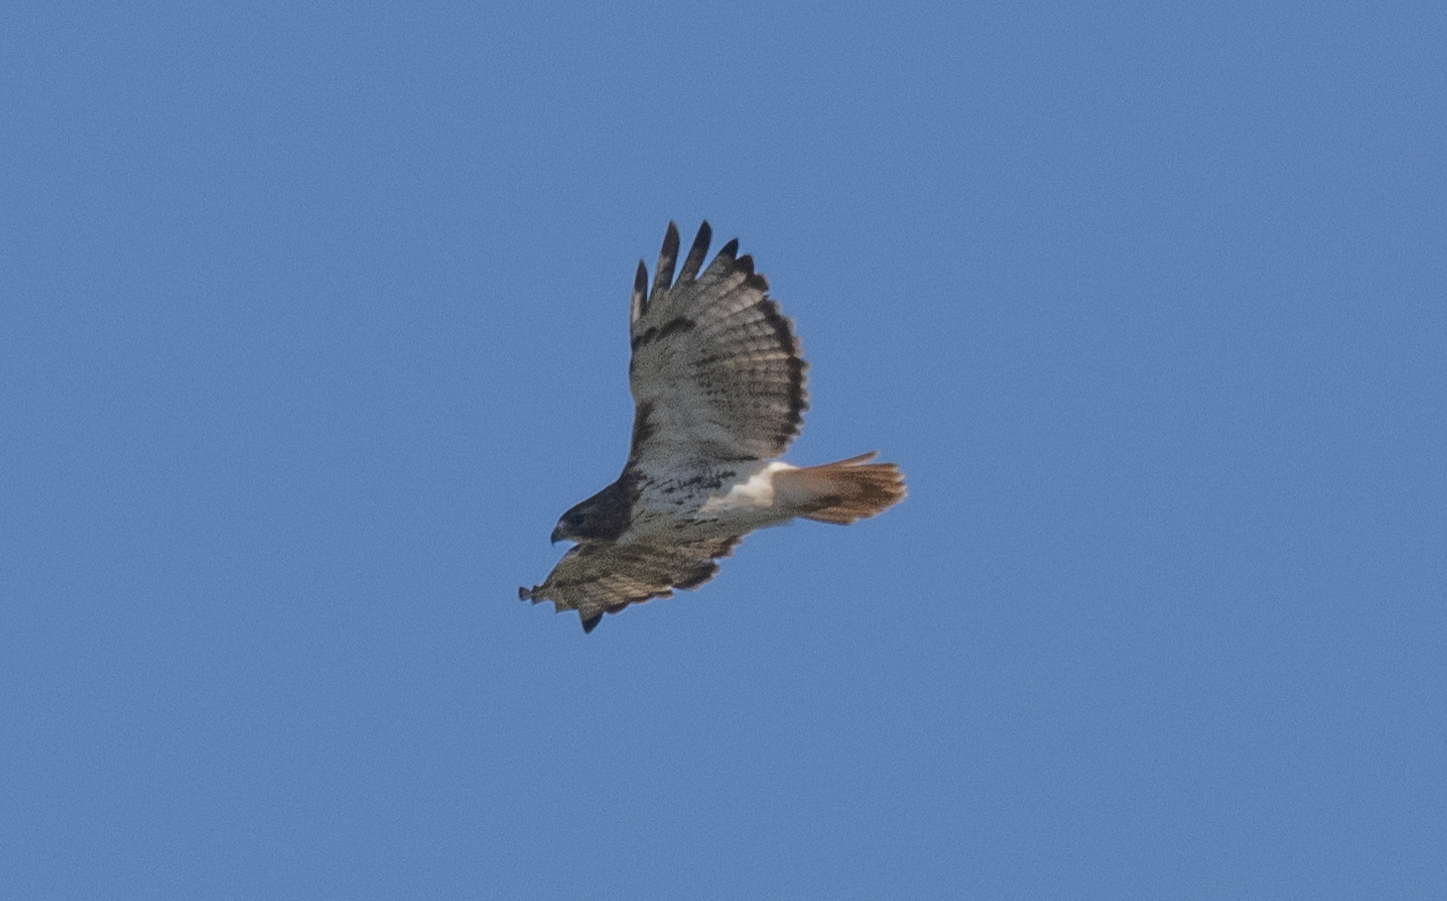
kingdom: Animalia
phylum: Chordata
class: Aves
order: Accipitriformes
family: Accipitridae
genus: Buteo
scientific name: Buteo jamaicensis
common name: Red-tailed hawk
